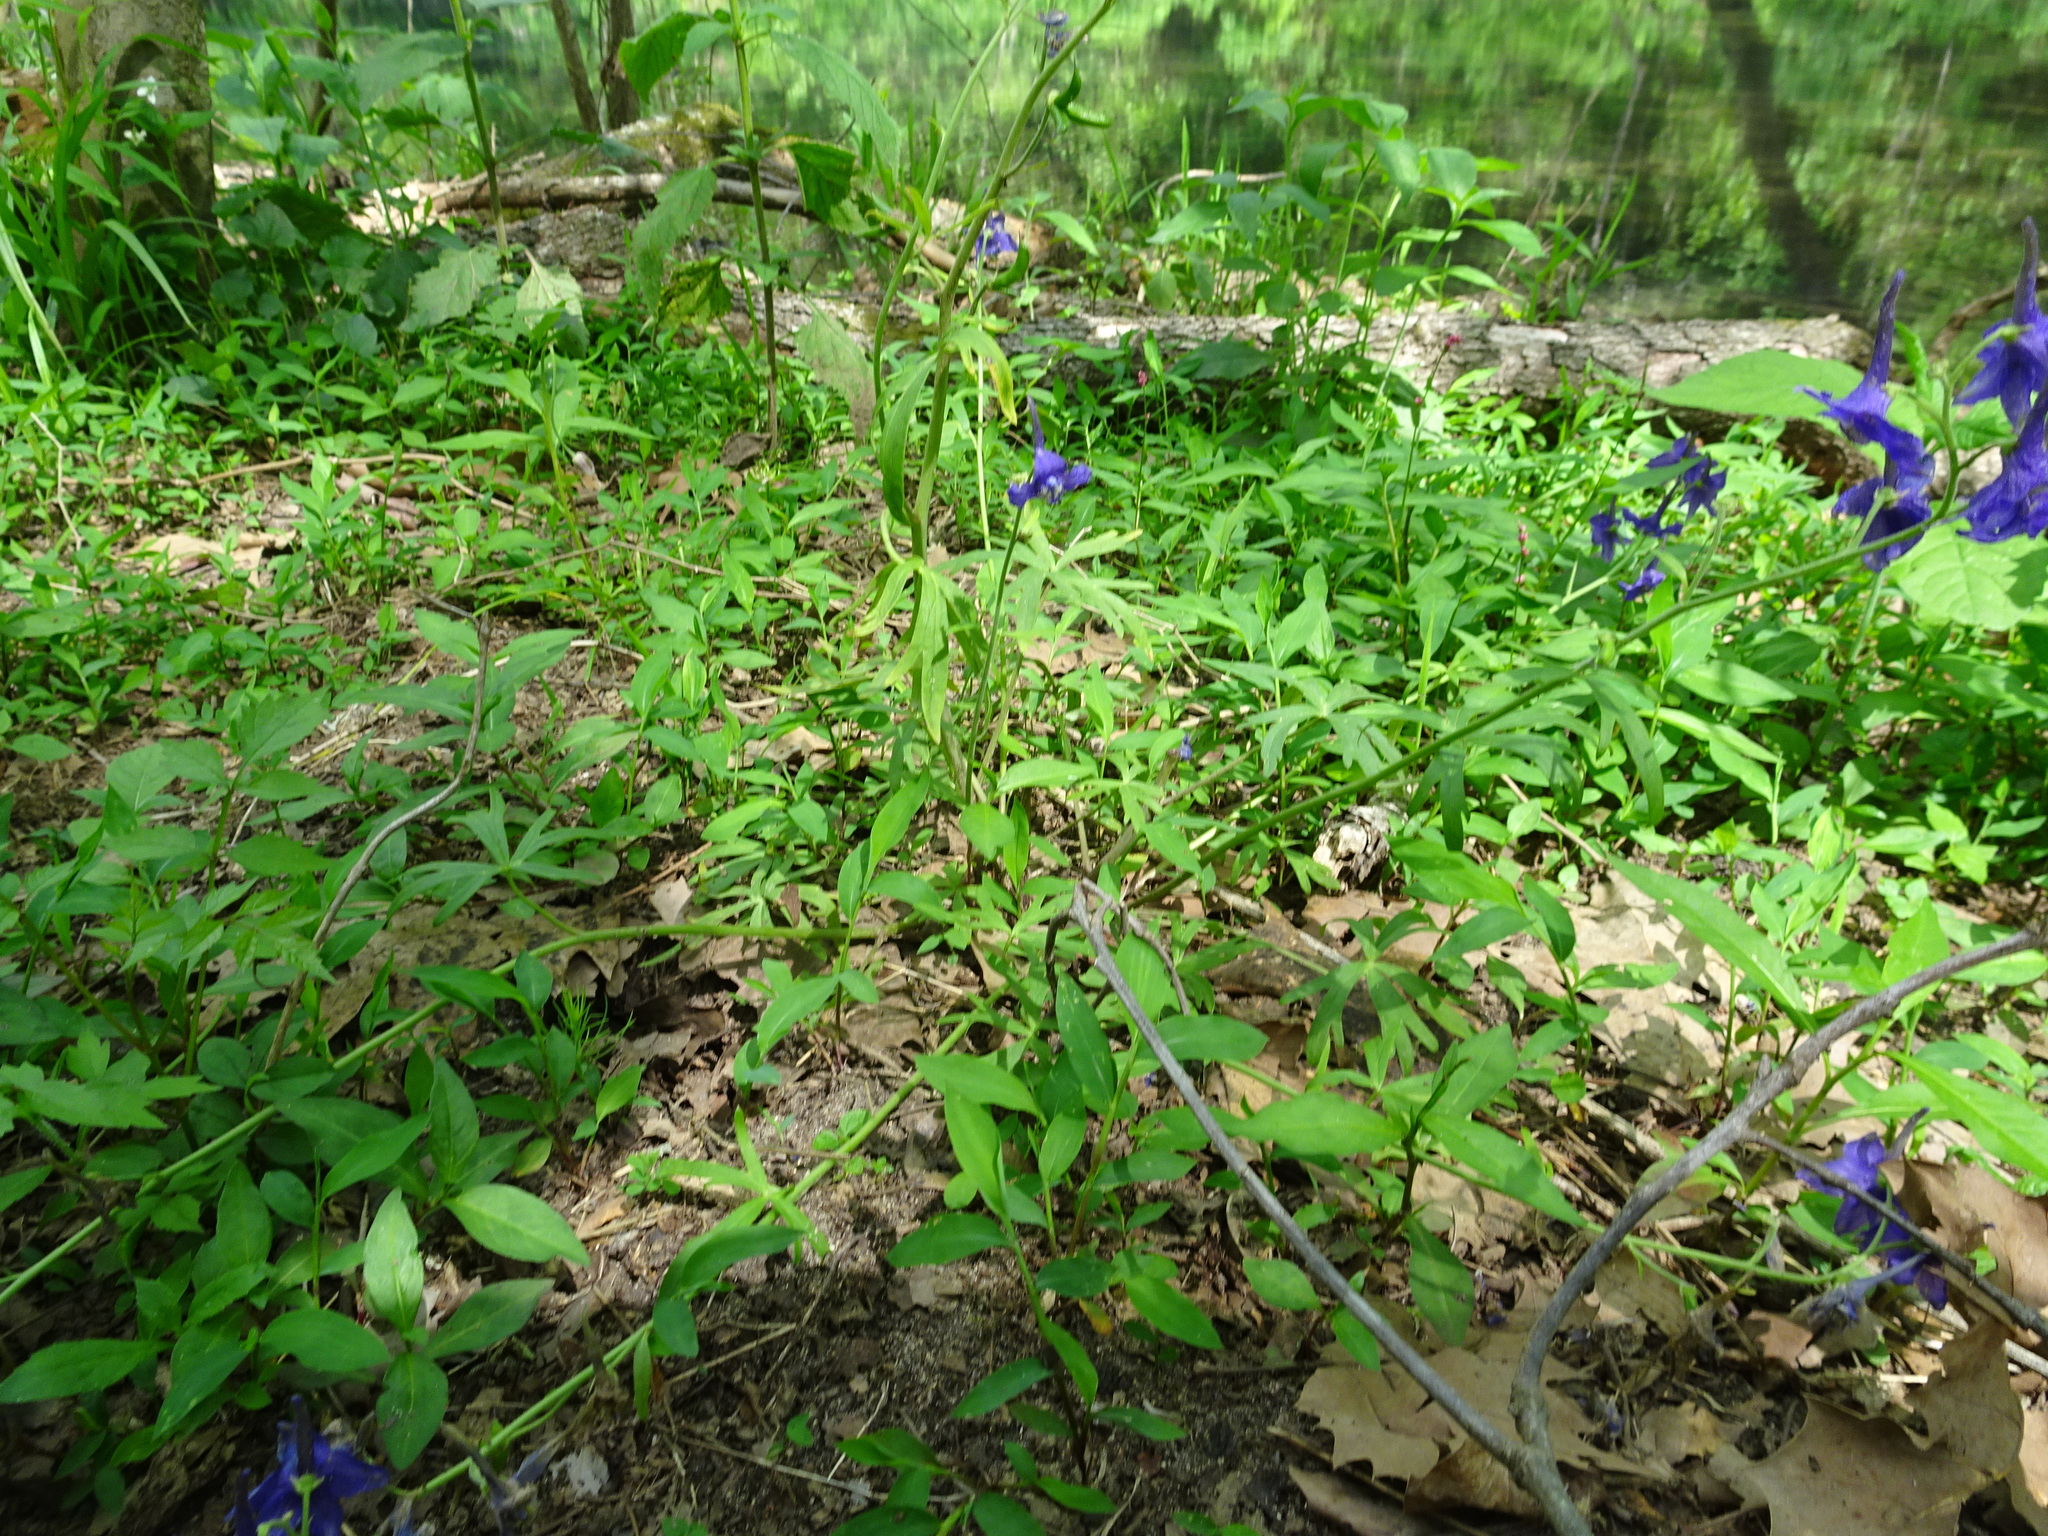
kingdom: Plantae
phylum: Tracheophyta
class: Magnoliopsida
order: Ranunculales
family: Ranunculaceae
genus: Delphinium
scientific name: Delphinium tricorne
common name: Dwarf larkspur
